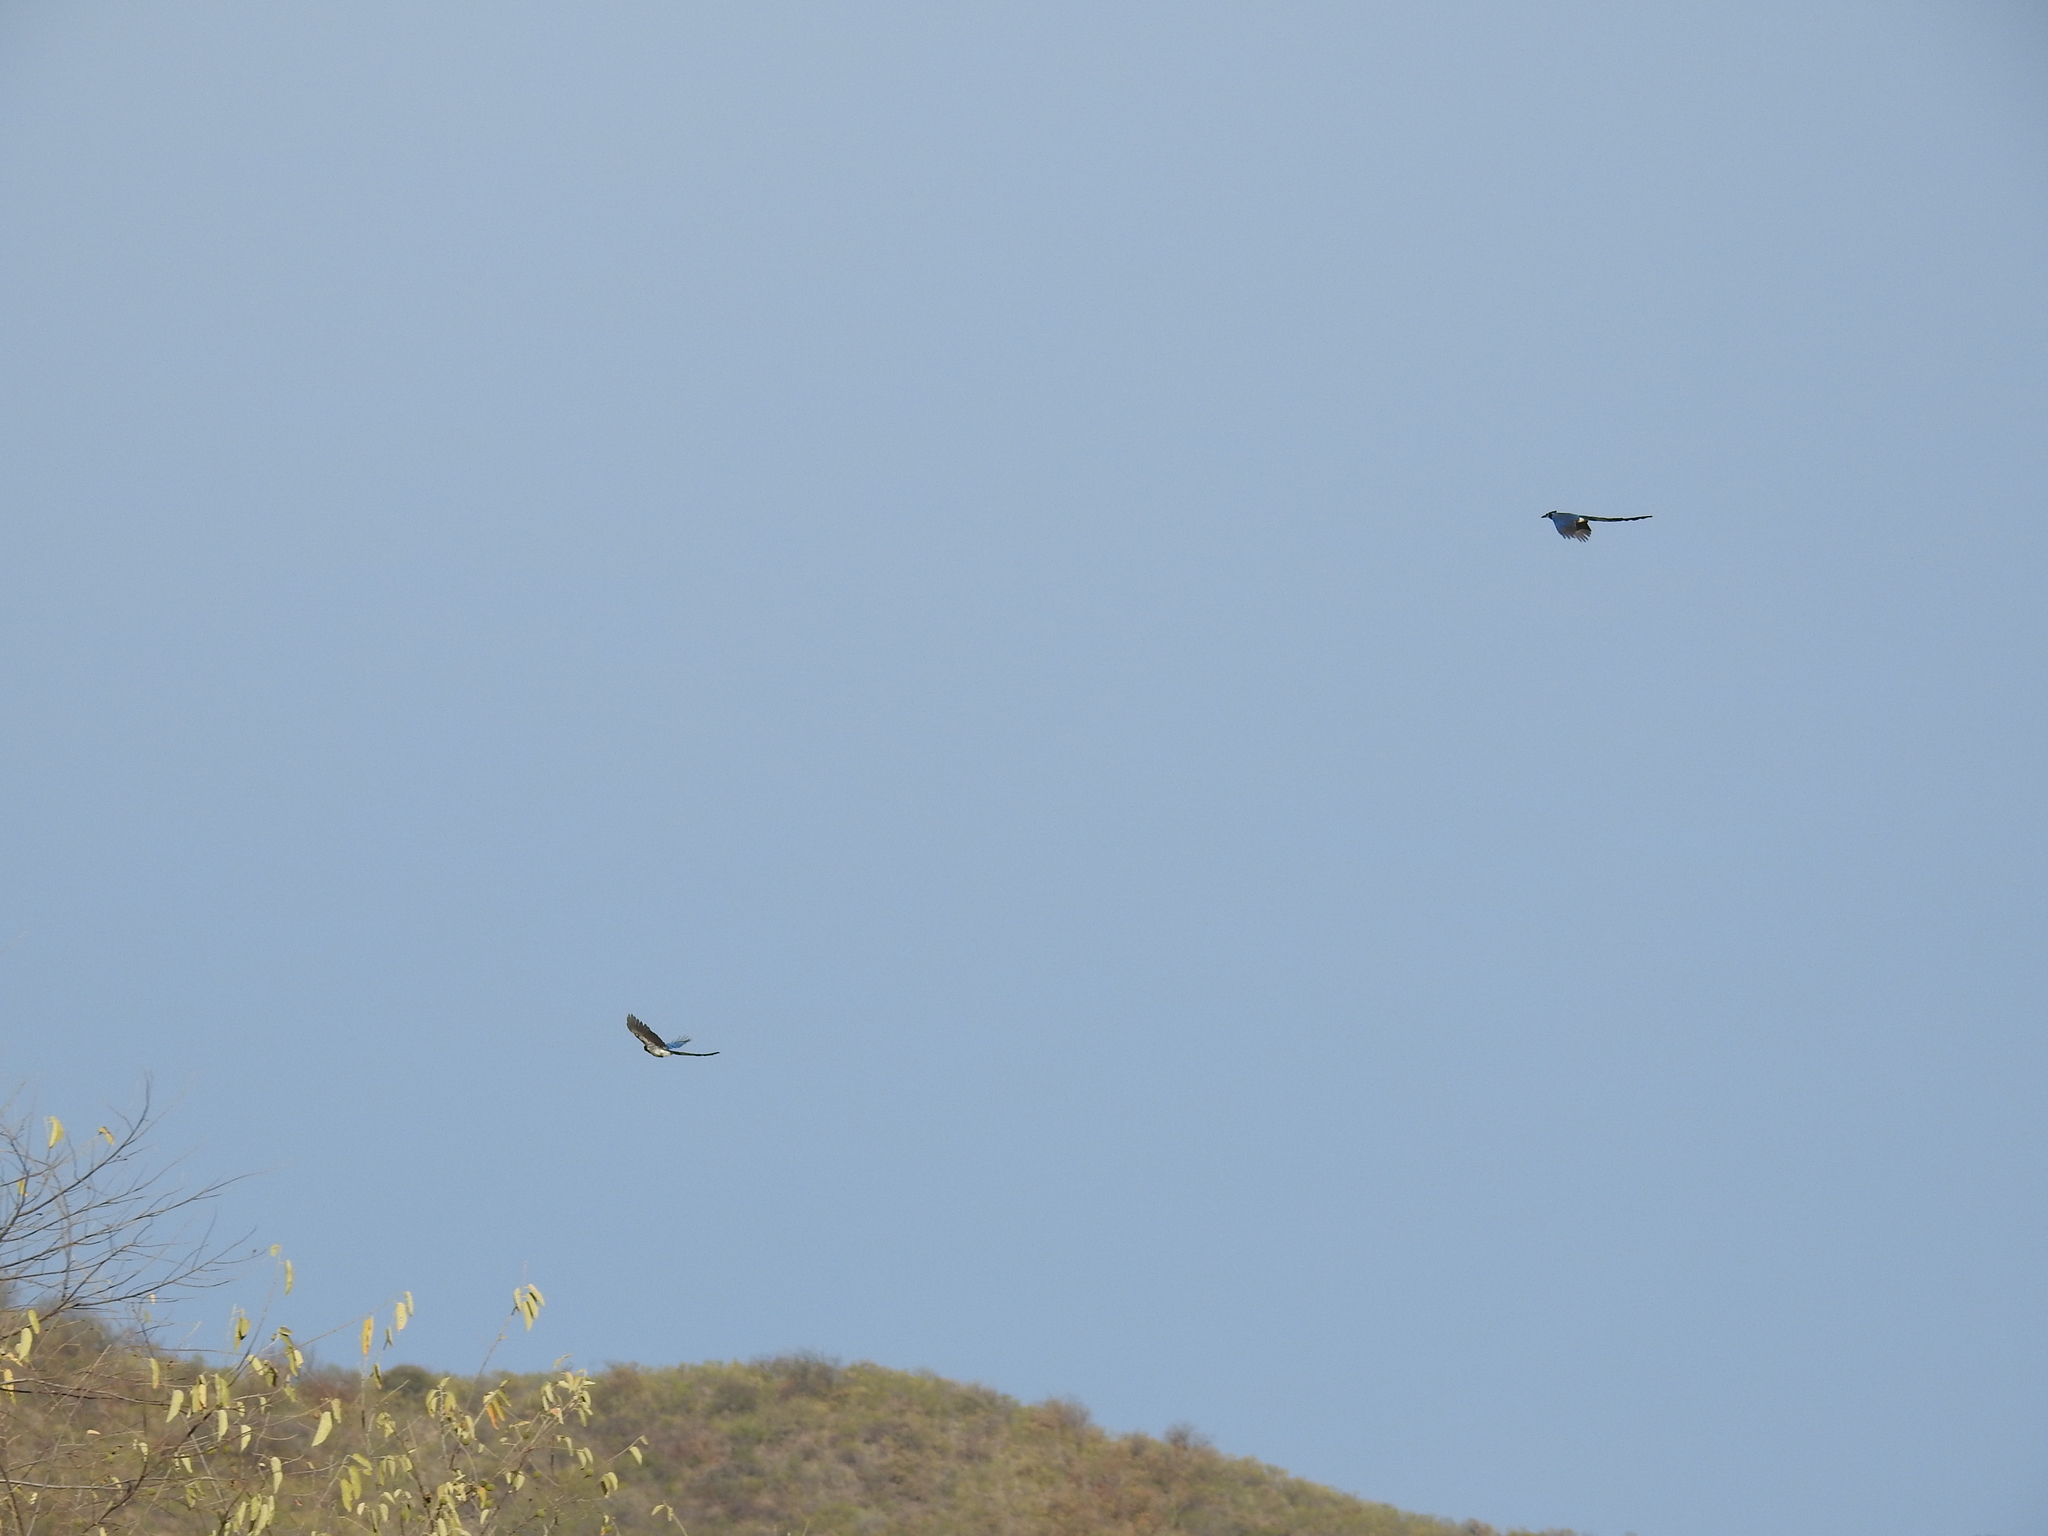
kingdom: Animalia
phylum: Chordata
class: Aves
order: Passeriformes
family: Corvidae
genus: Calocitta
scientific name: Calocitta colliei
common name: Black-throated magpie-jay
